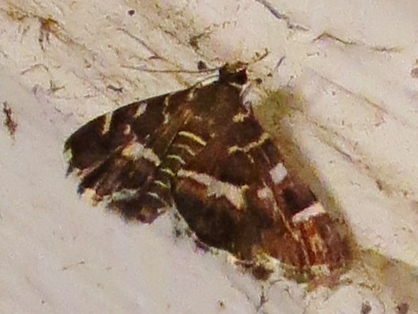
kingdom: Animalia
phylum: Arthropoda
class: Insecta
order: Lepidoptera
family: Crambidae
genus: Hymenia
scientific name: Hymenia perspectalis
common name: Spotted beet webworm
